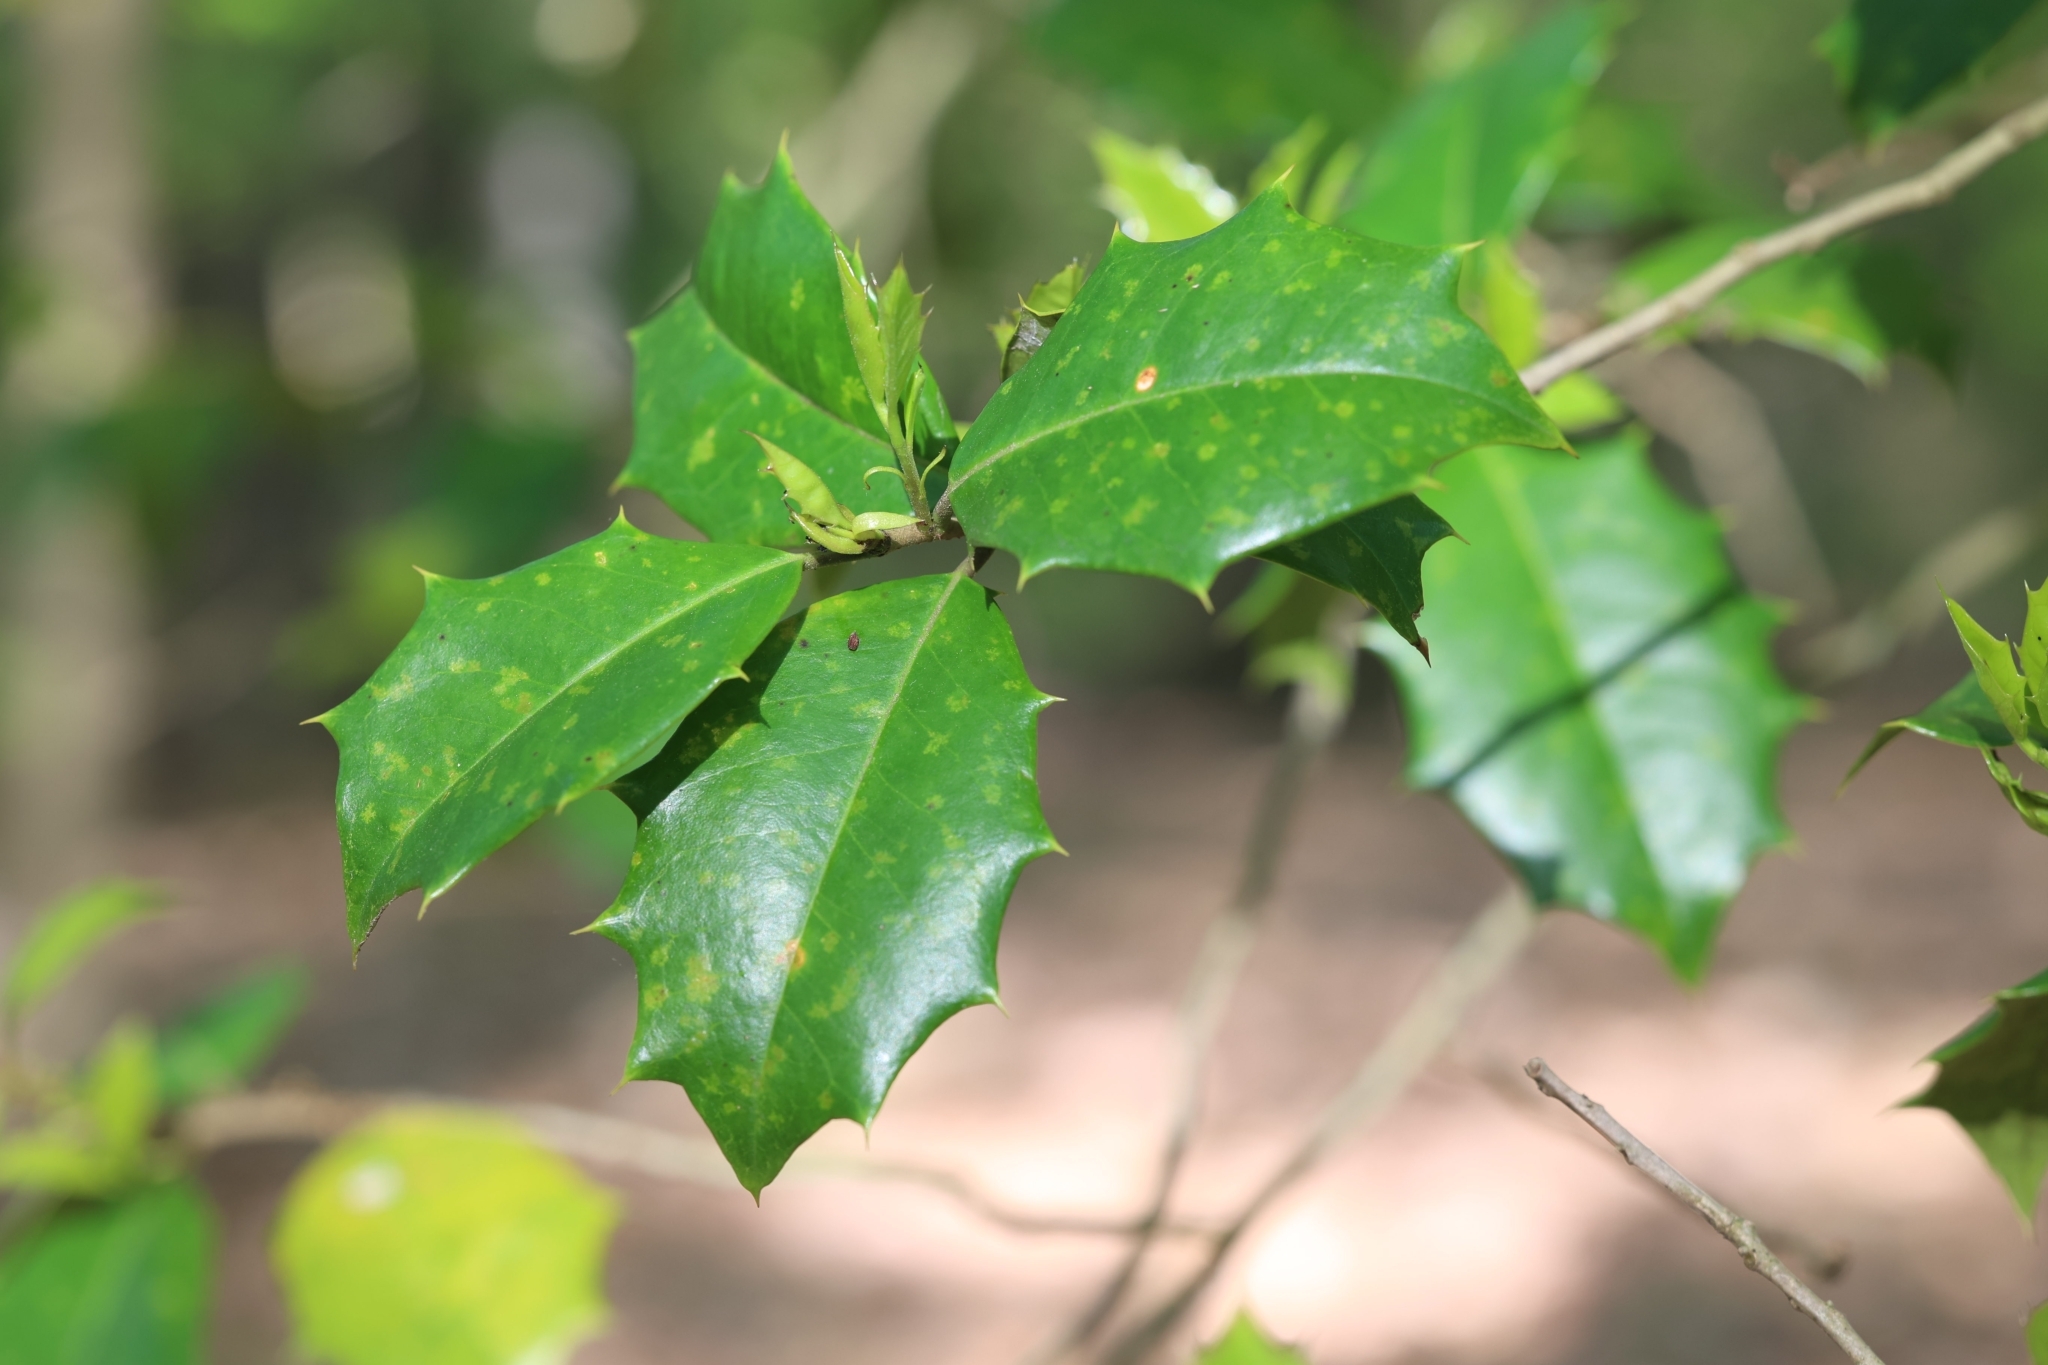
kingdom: Plantae
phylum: Tracheophyta
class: Magnoliopsida
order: Aquifoliales
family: Aquifoliaceae
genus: Ilex
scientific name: Ilex opaca
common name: American holly
